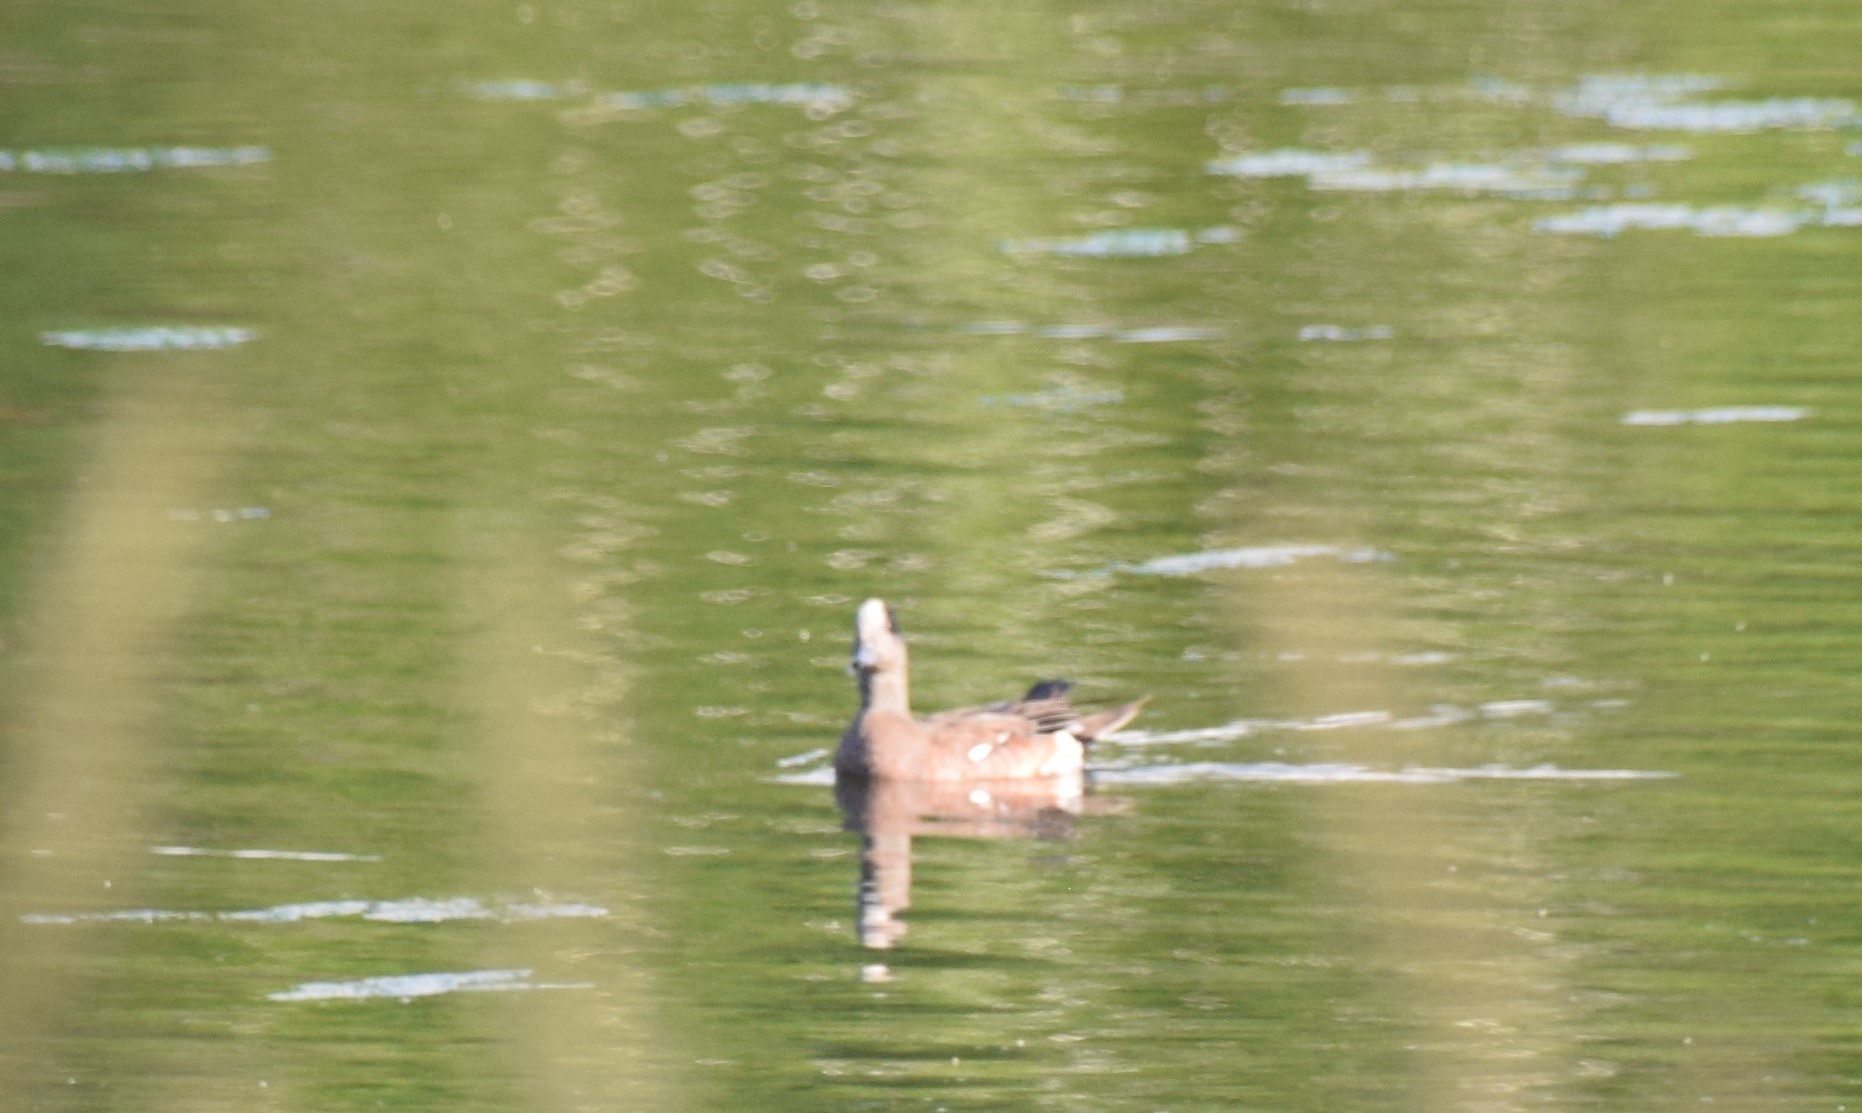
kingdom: Animalia
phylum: Chordata
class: Aves
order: Anseriformes
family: Anatidae
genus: Mareca
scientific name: Mareca americana
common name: American wigeon
